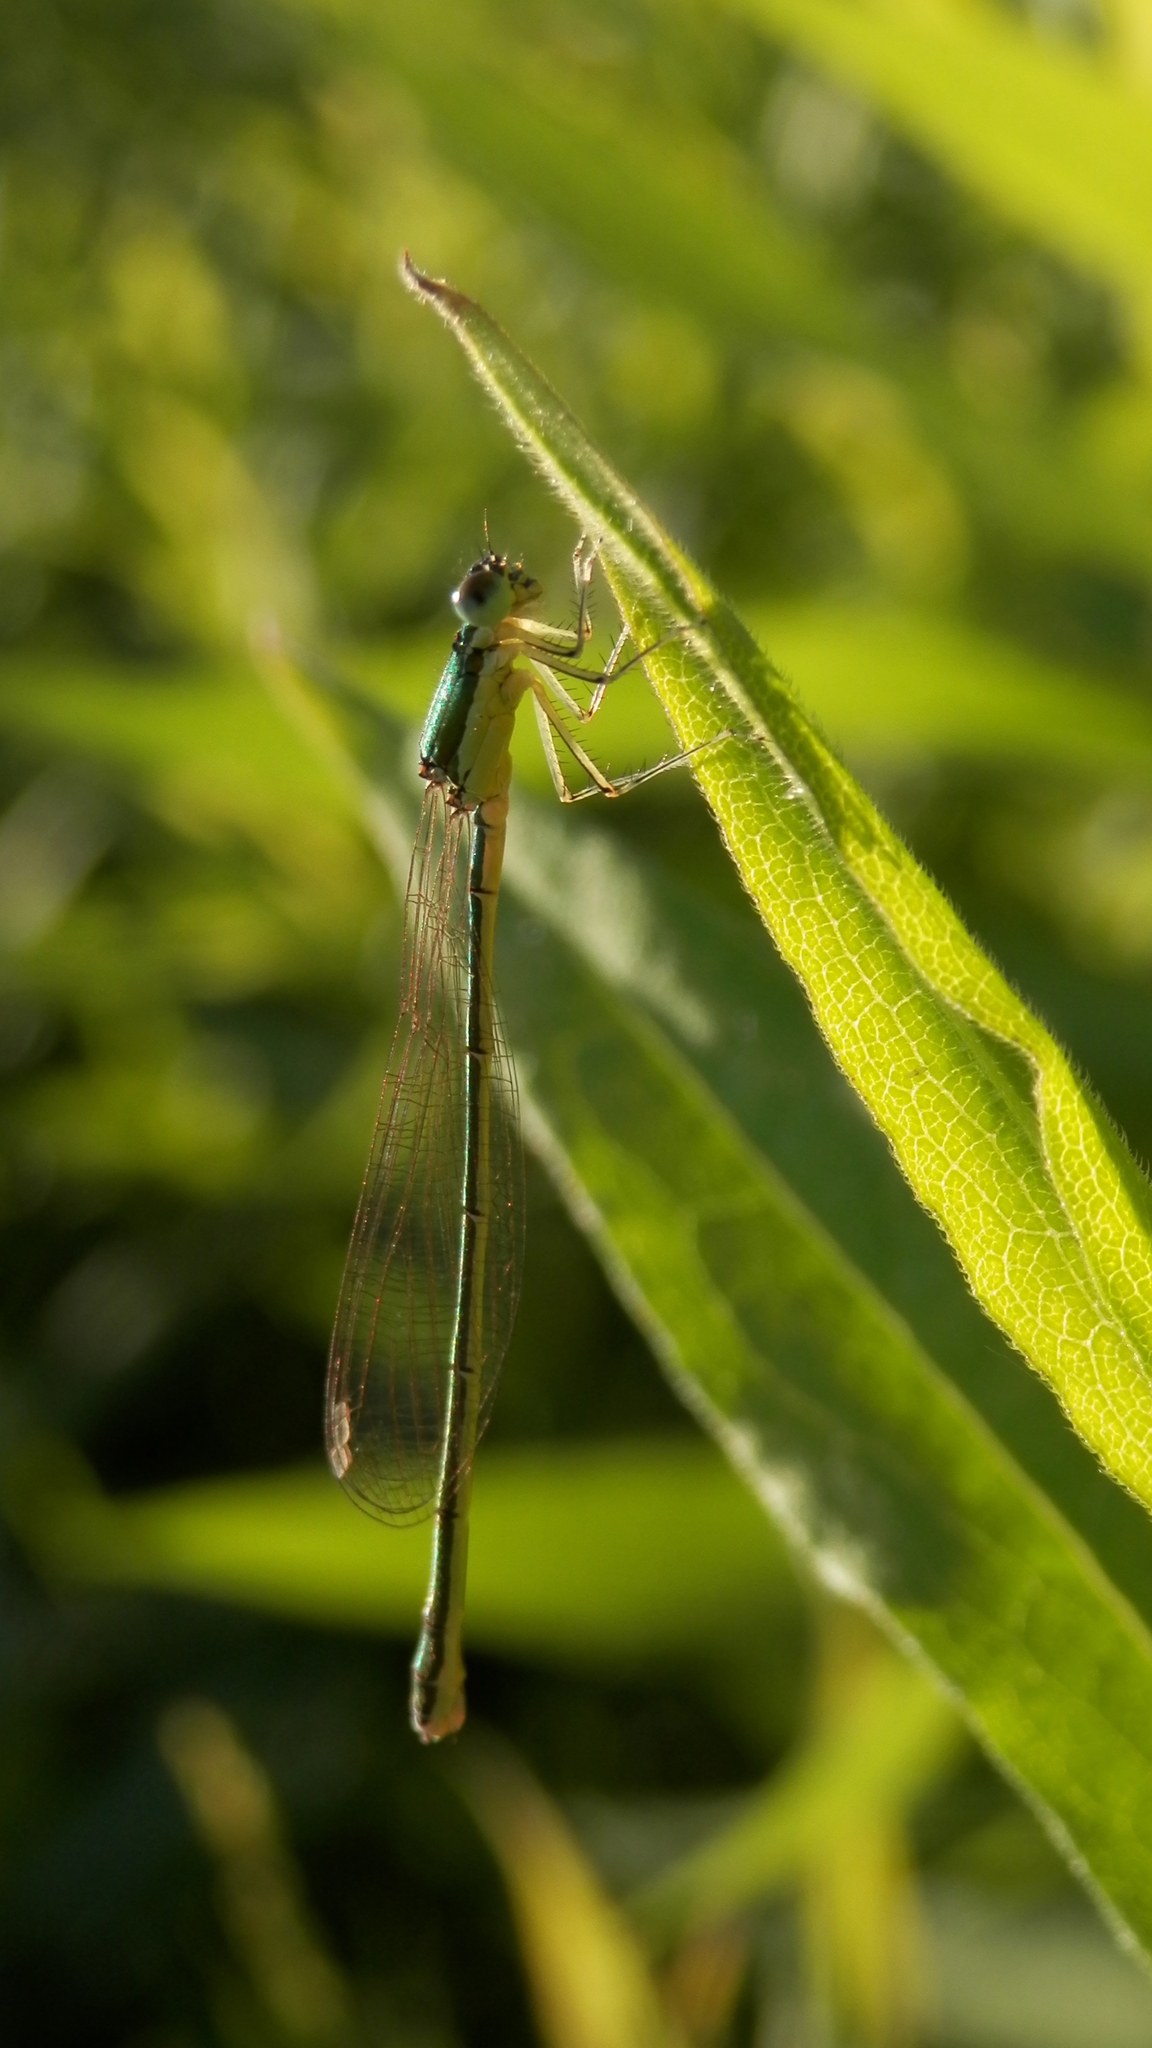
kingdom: Animalia
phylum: Arthropoda
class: Insecta
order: Odonata
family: Coenagrionidae
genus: Nehalennia
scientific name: Nehalennia irene
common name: Sedge sprite
